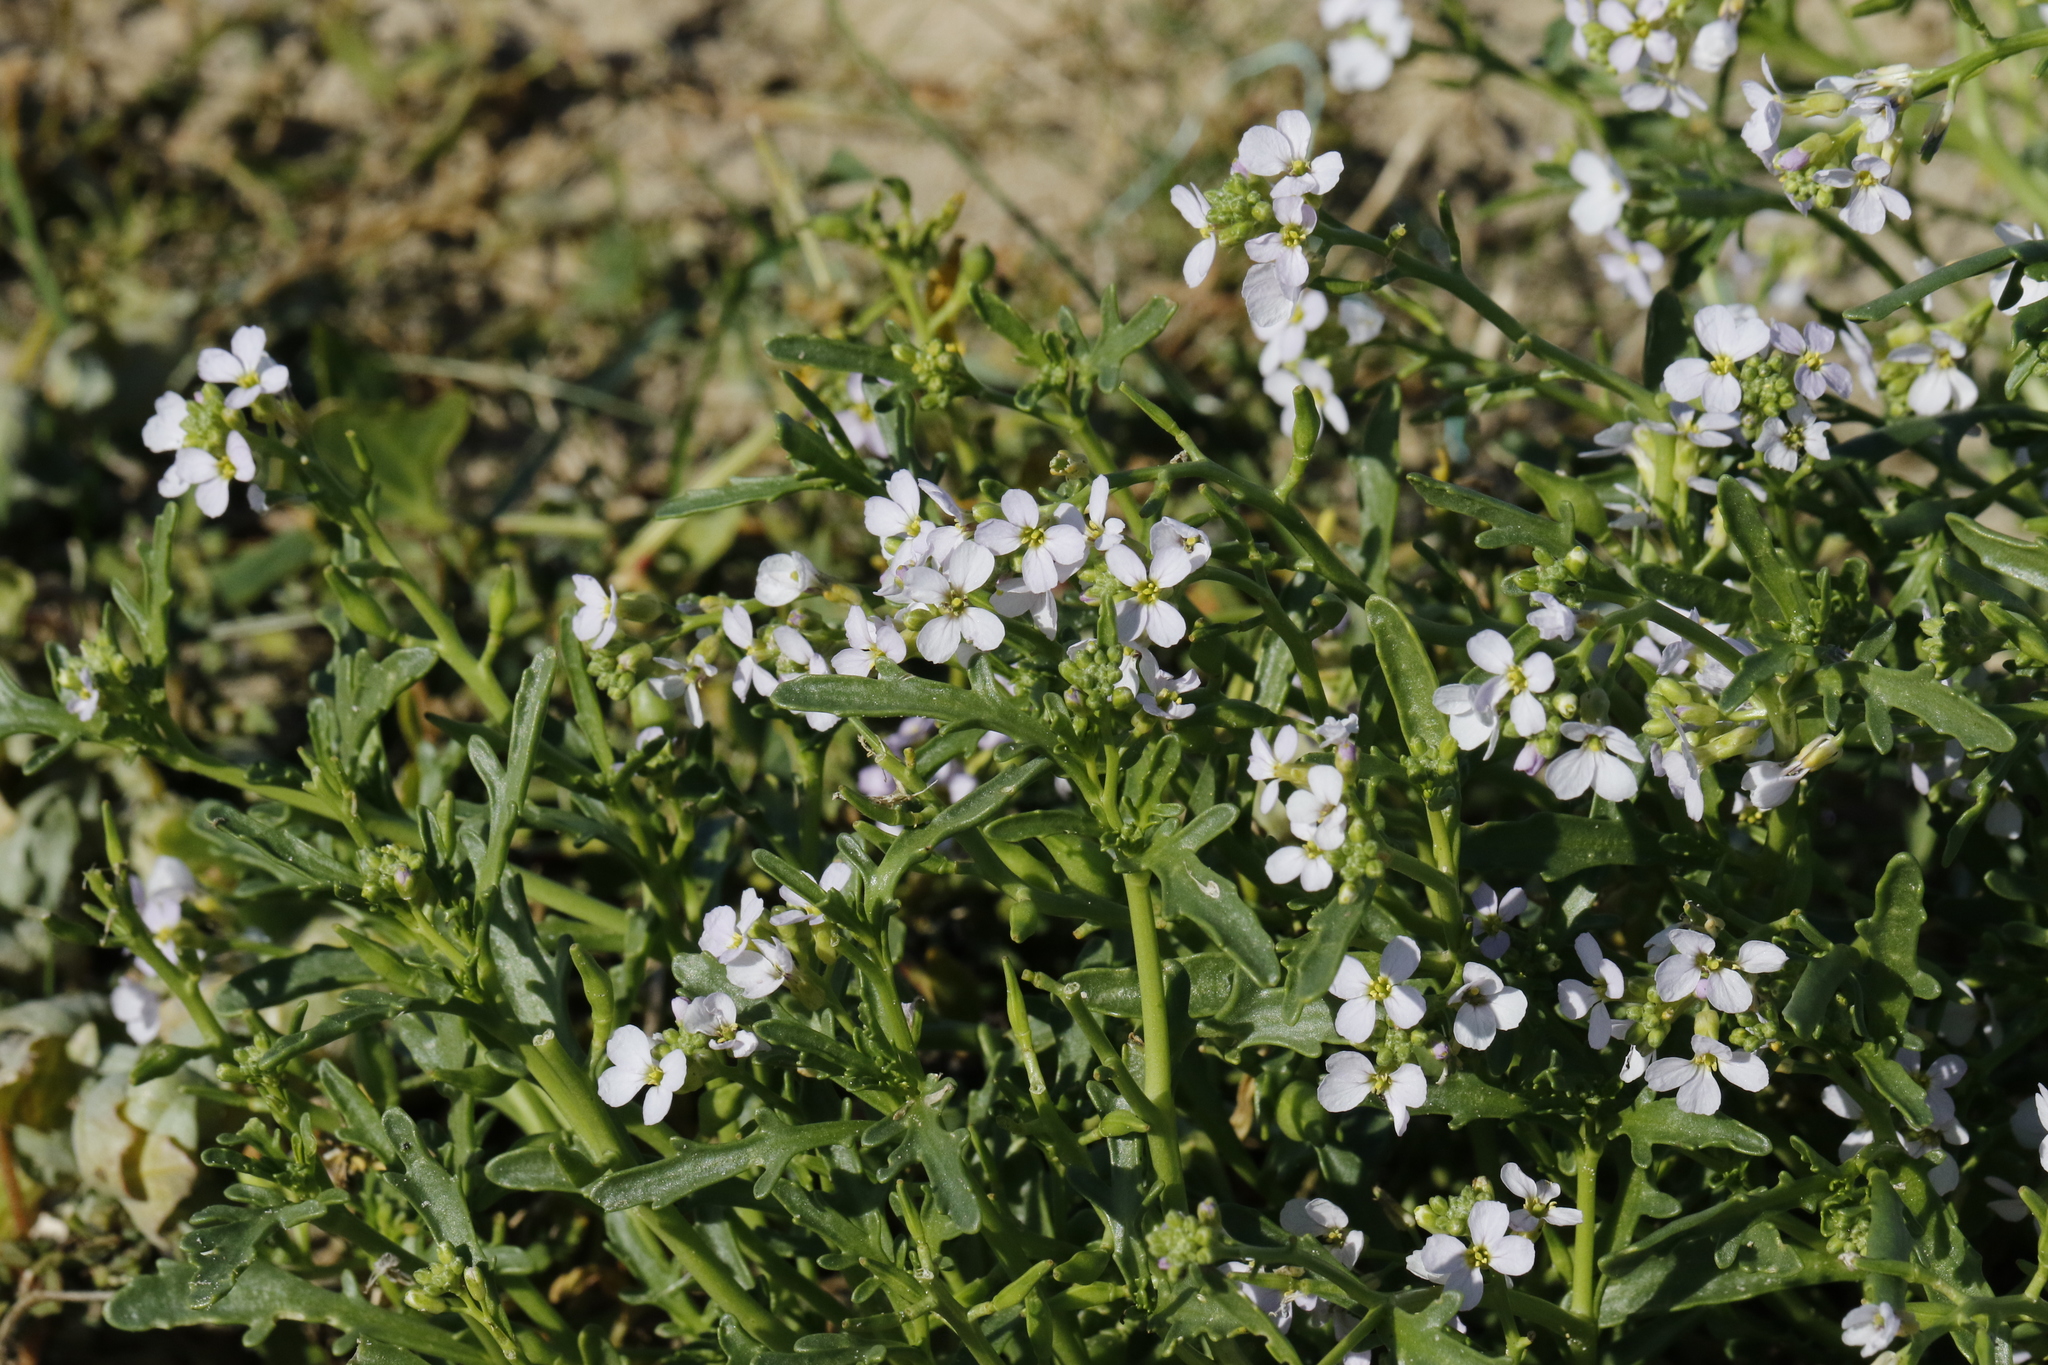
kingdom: Plantae
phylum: Tracheophyta
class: Magnoliopsida
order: Brassicales
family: Brassicaceae
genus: Cakile
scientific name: Cakile maritima
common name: Sea rocket
